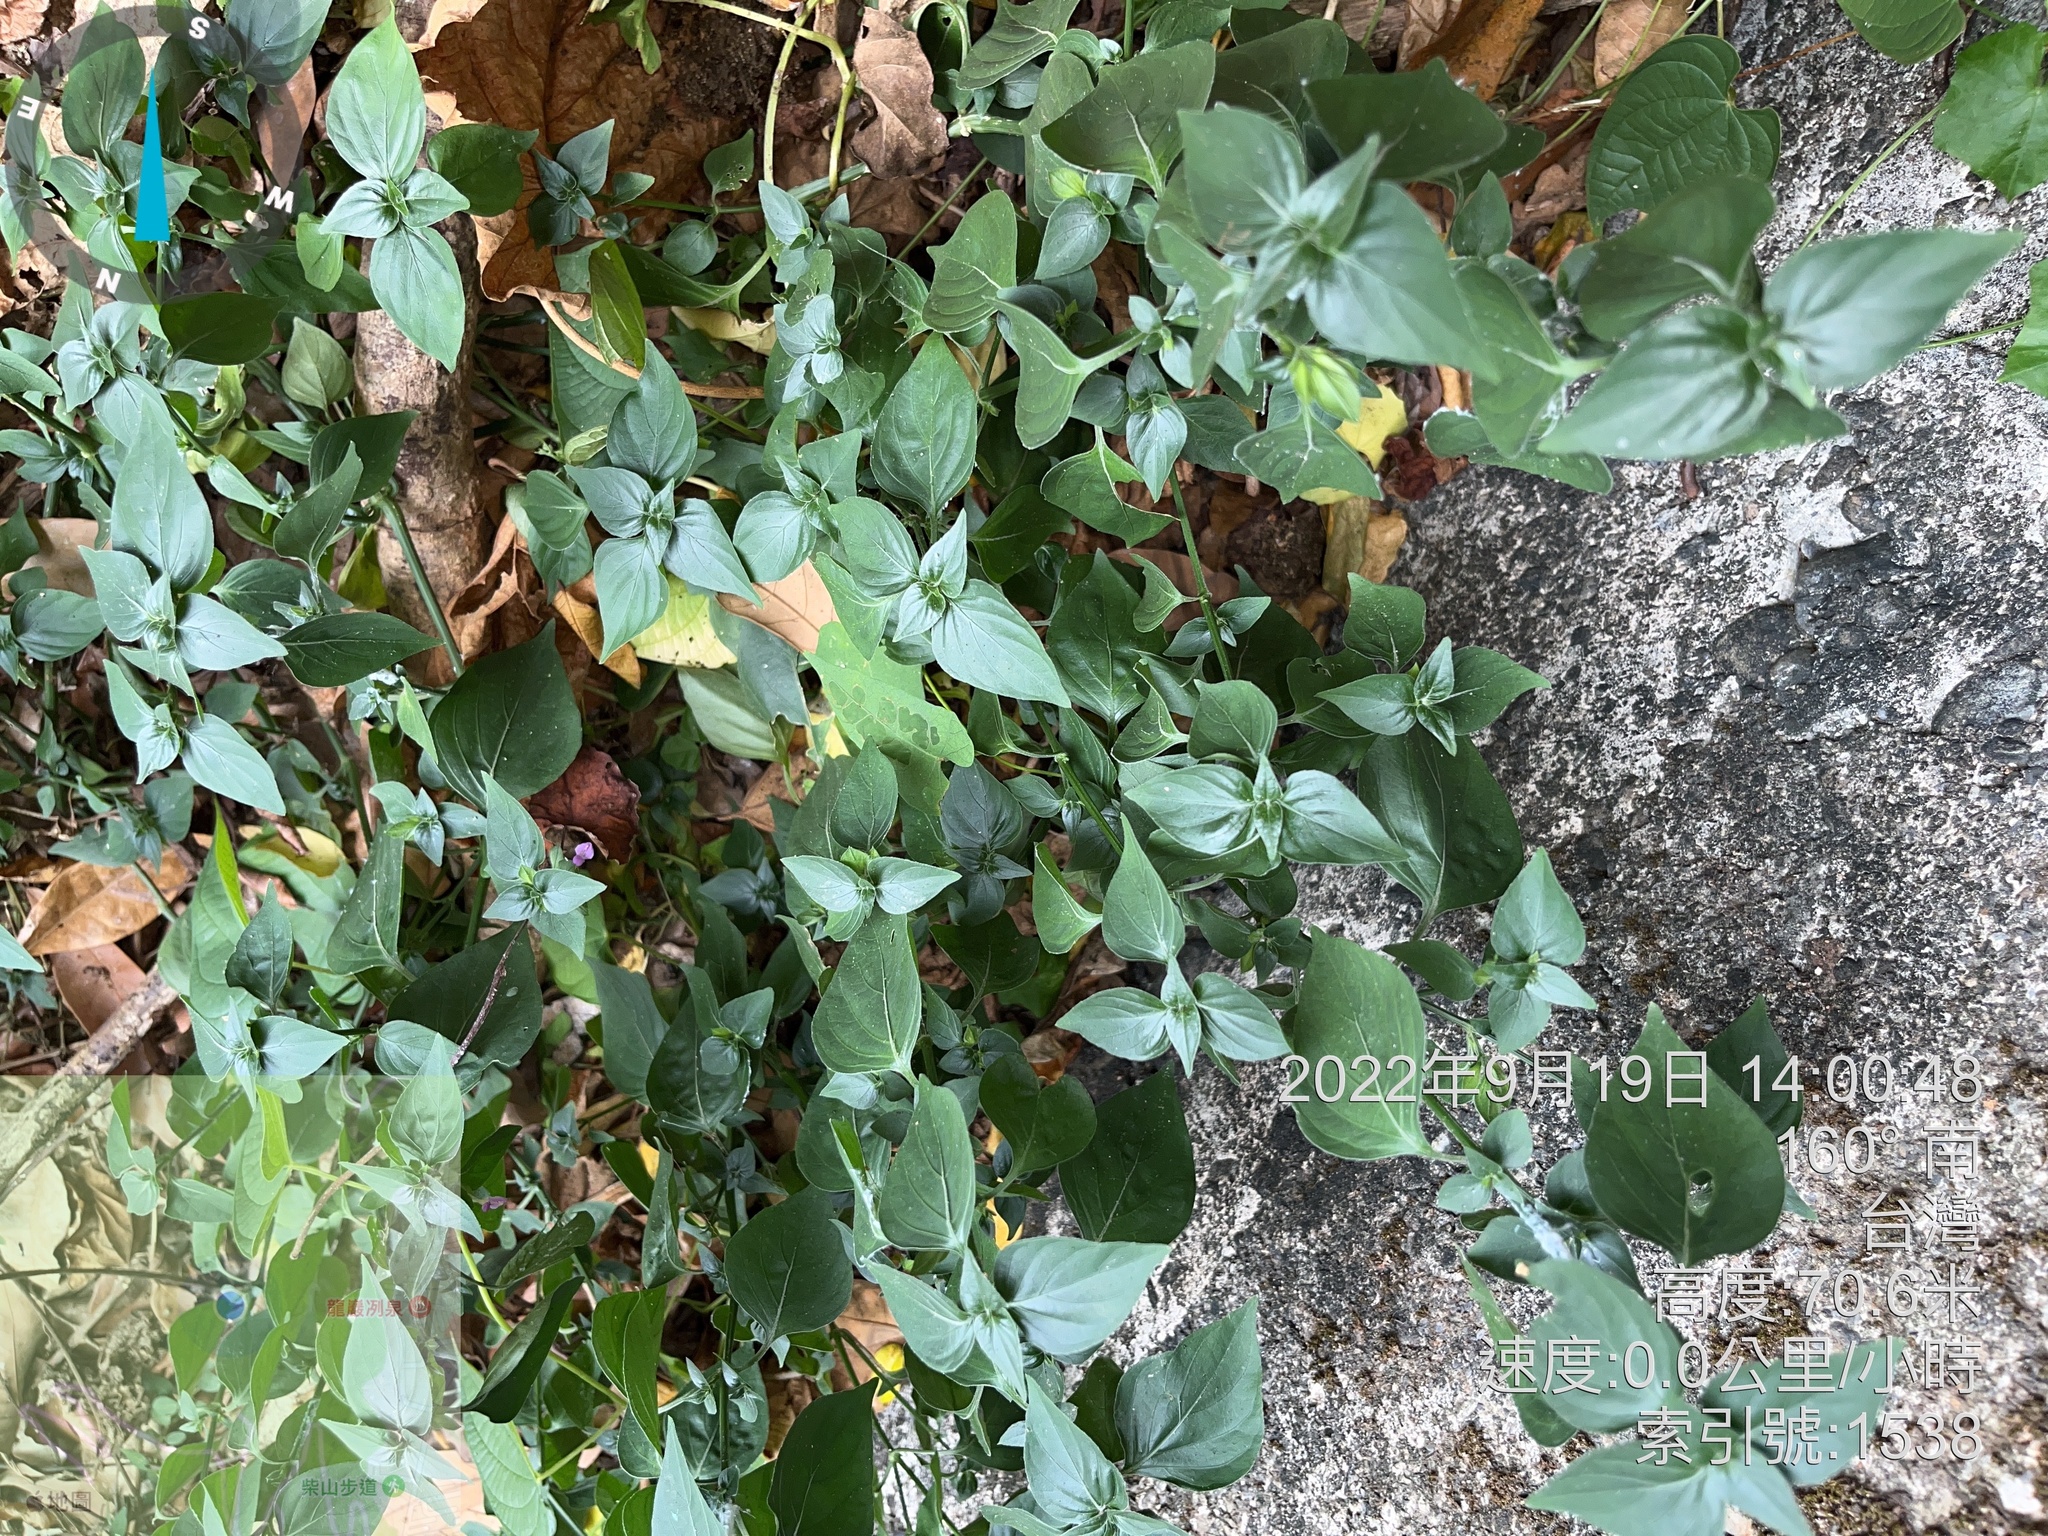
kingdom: Plantae
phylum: Tracheophyta
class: Magnoliopsida
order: Lamiales
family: Acanthaceae
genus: Dicliptera
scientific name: Dicliptera chinensis
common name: Chinese foldwing
